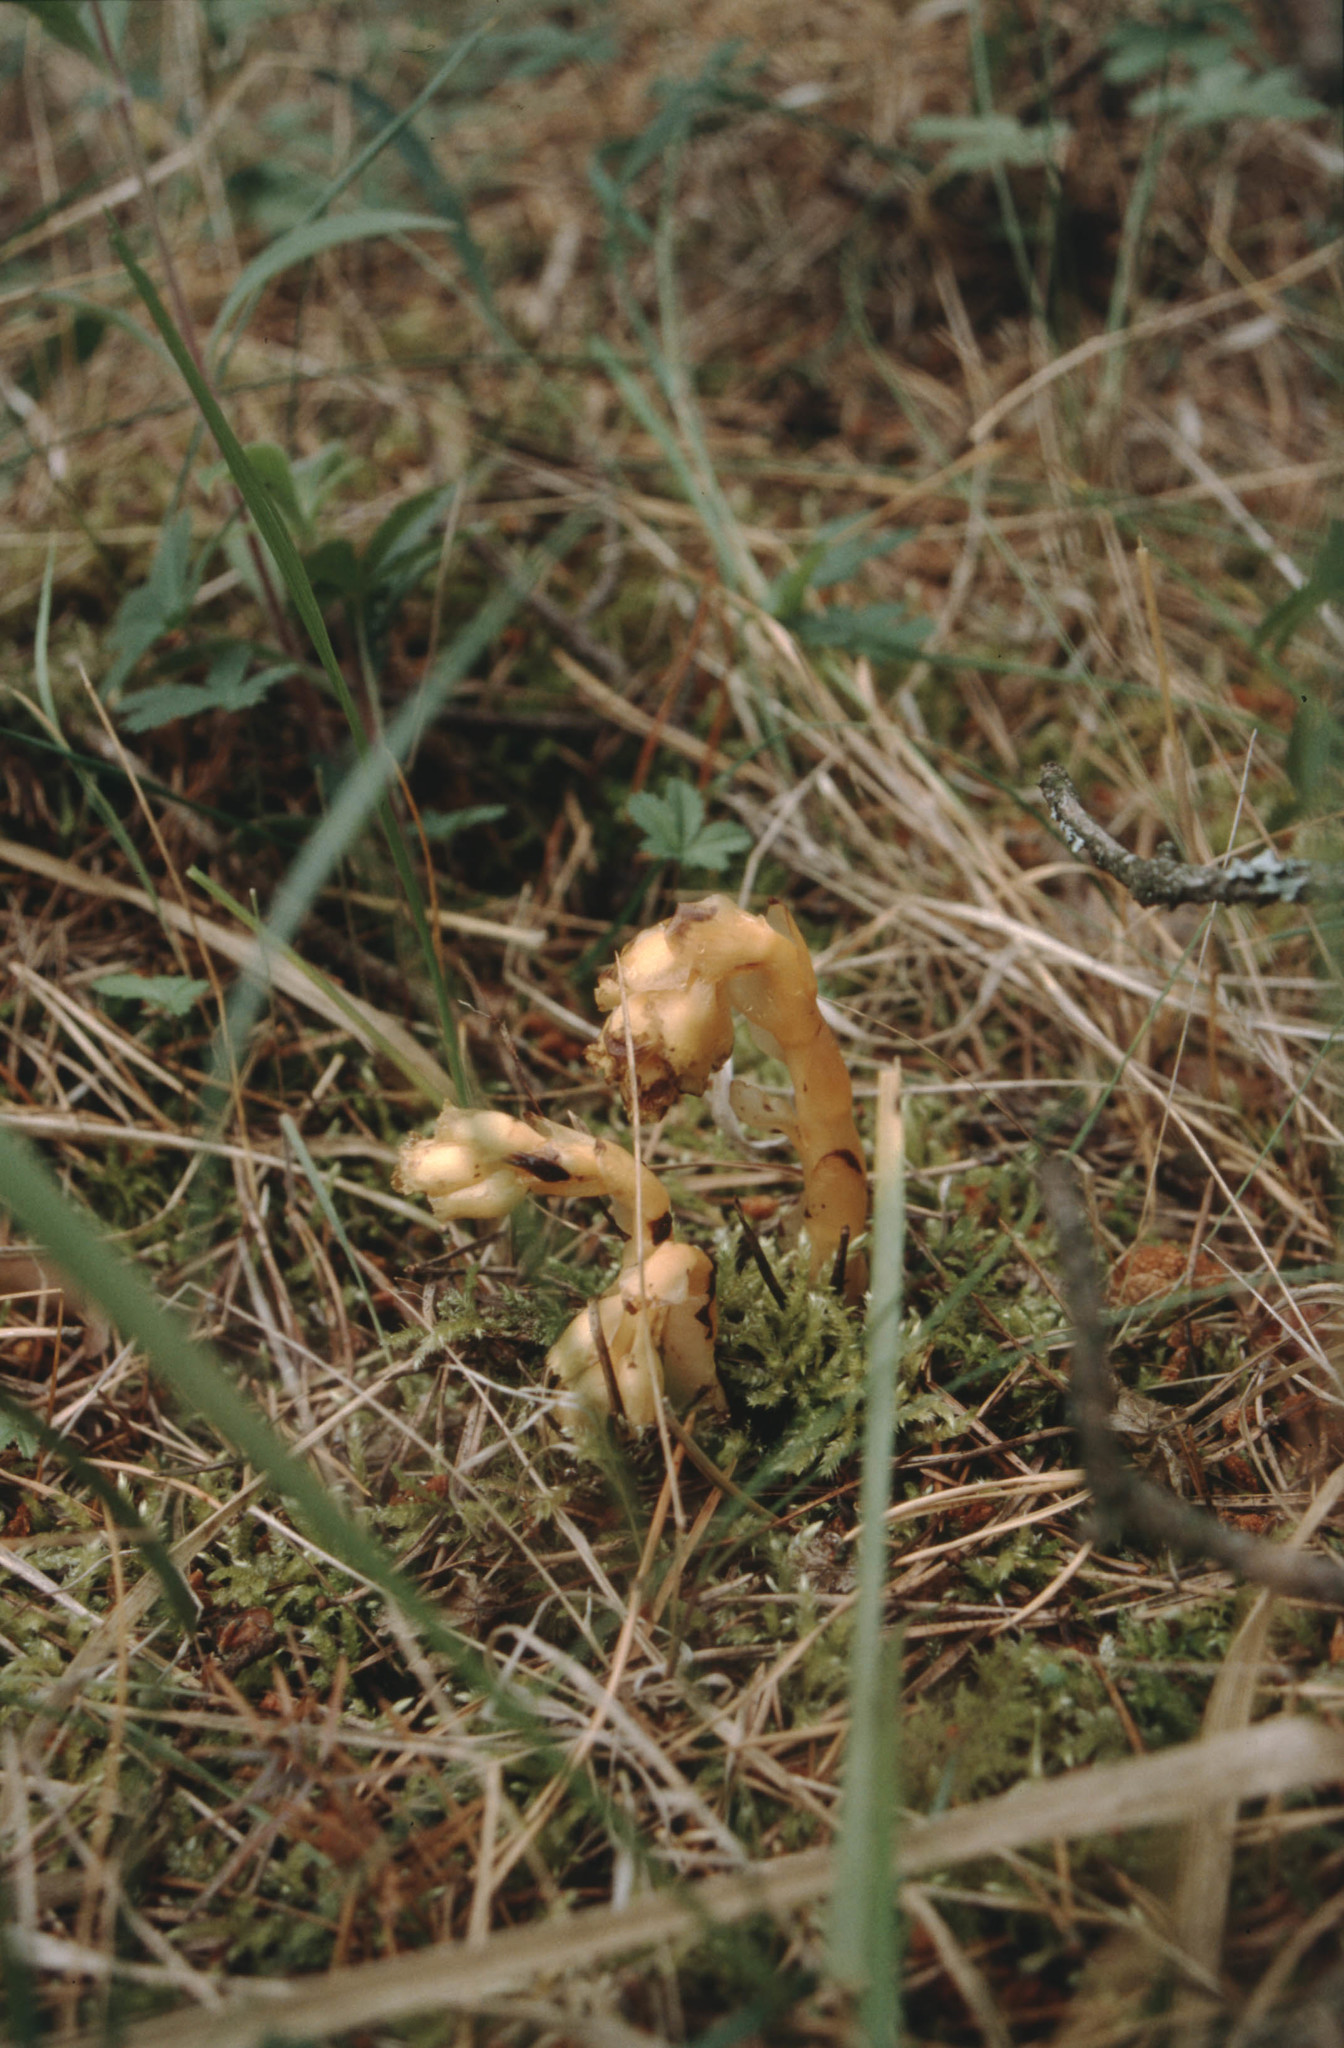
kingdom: Plantae
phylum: Tracheophyta
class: Magnoliopsida
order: Ericales
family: Ericaceae
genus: Hypopitys
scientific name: Hypopitys monotropa
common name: Yellow bird's-nest
